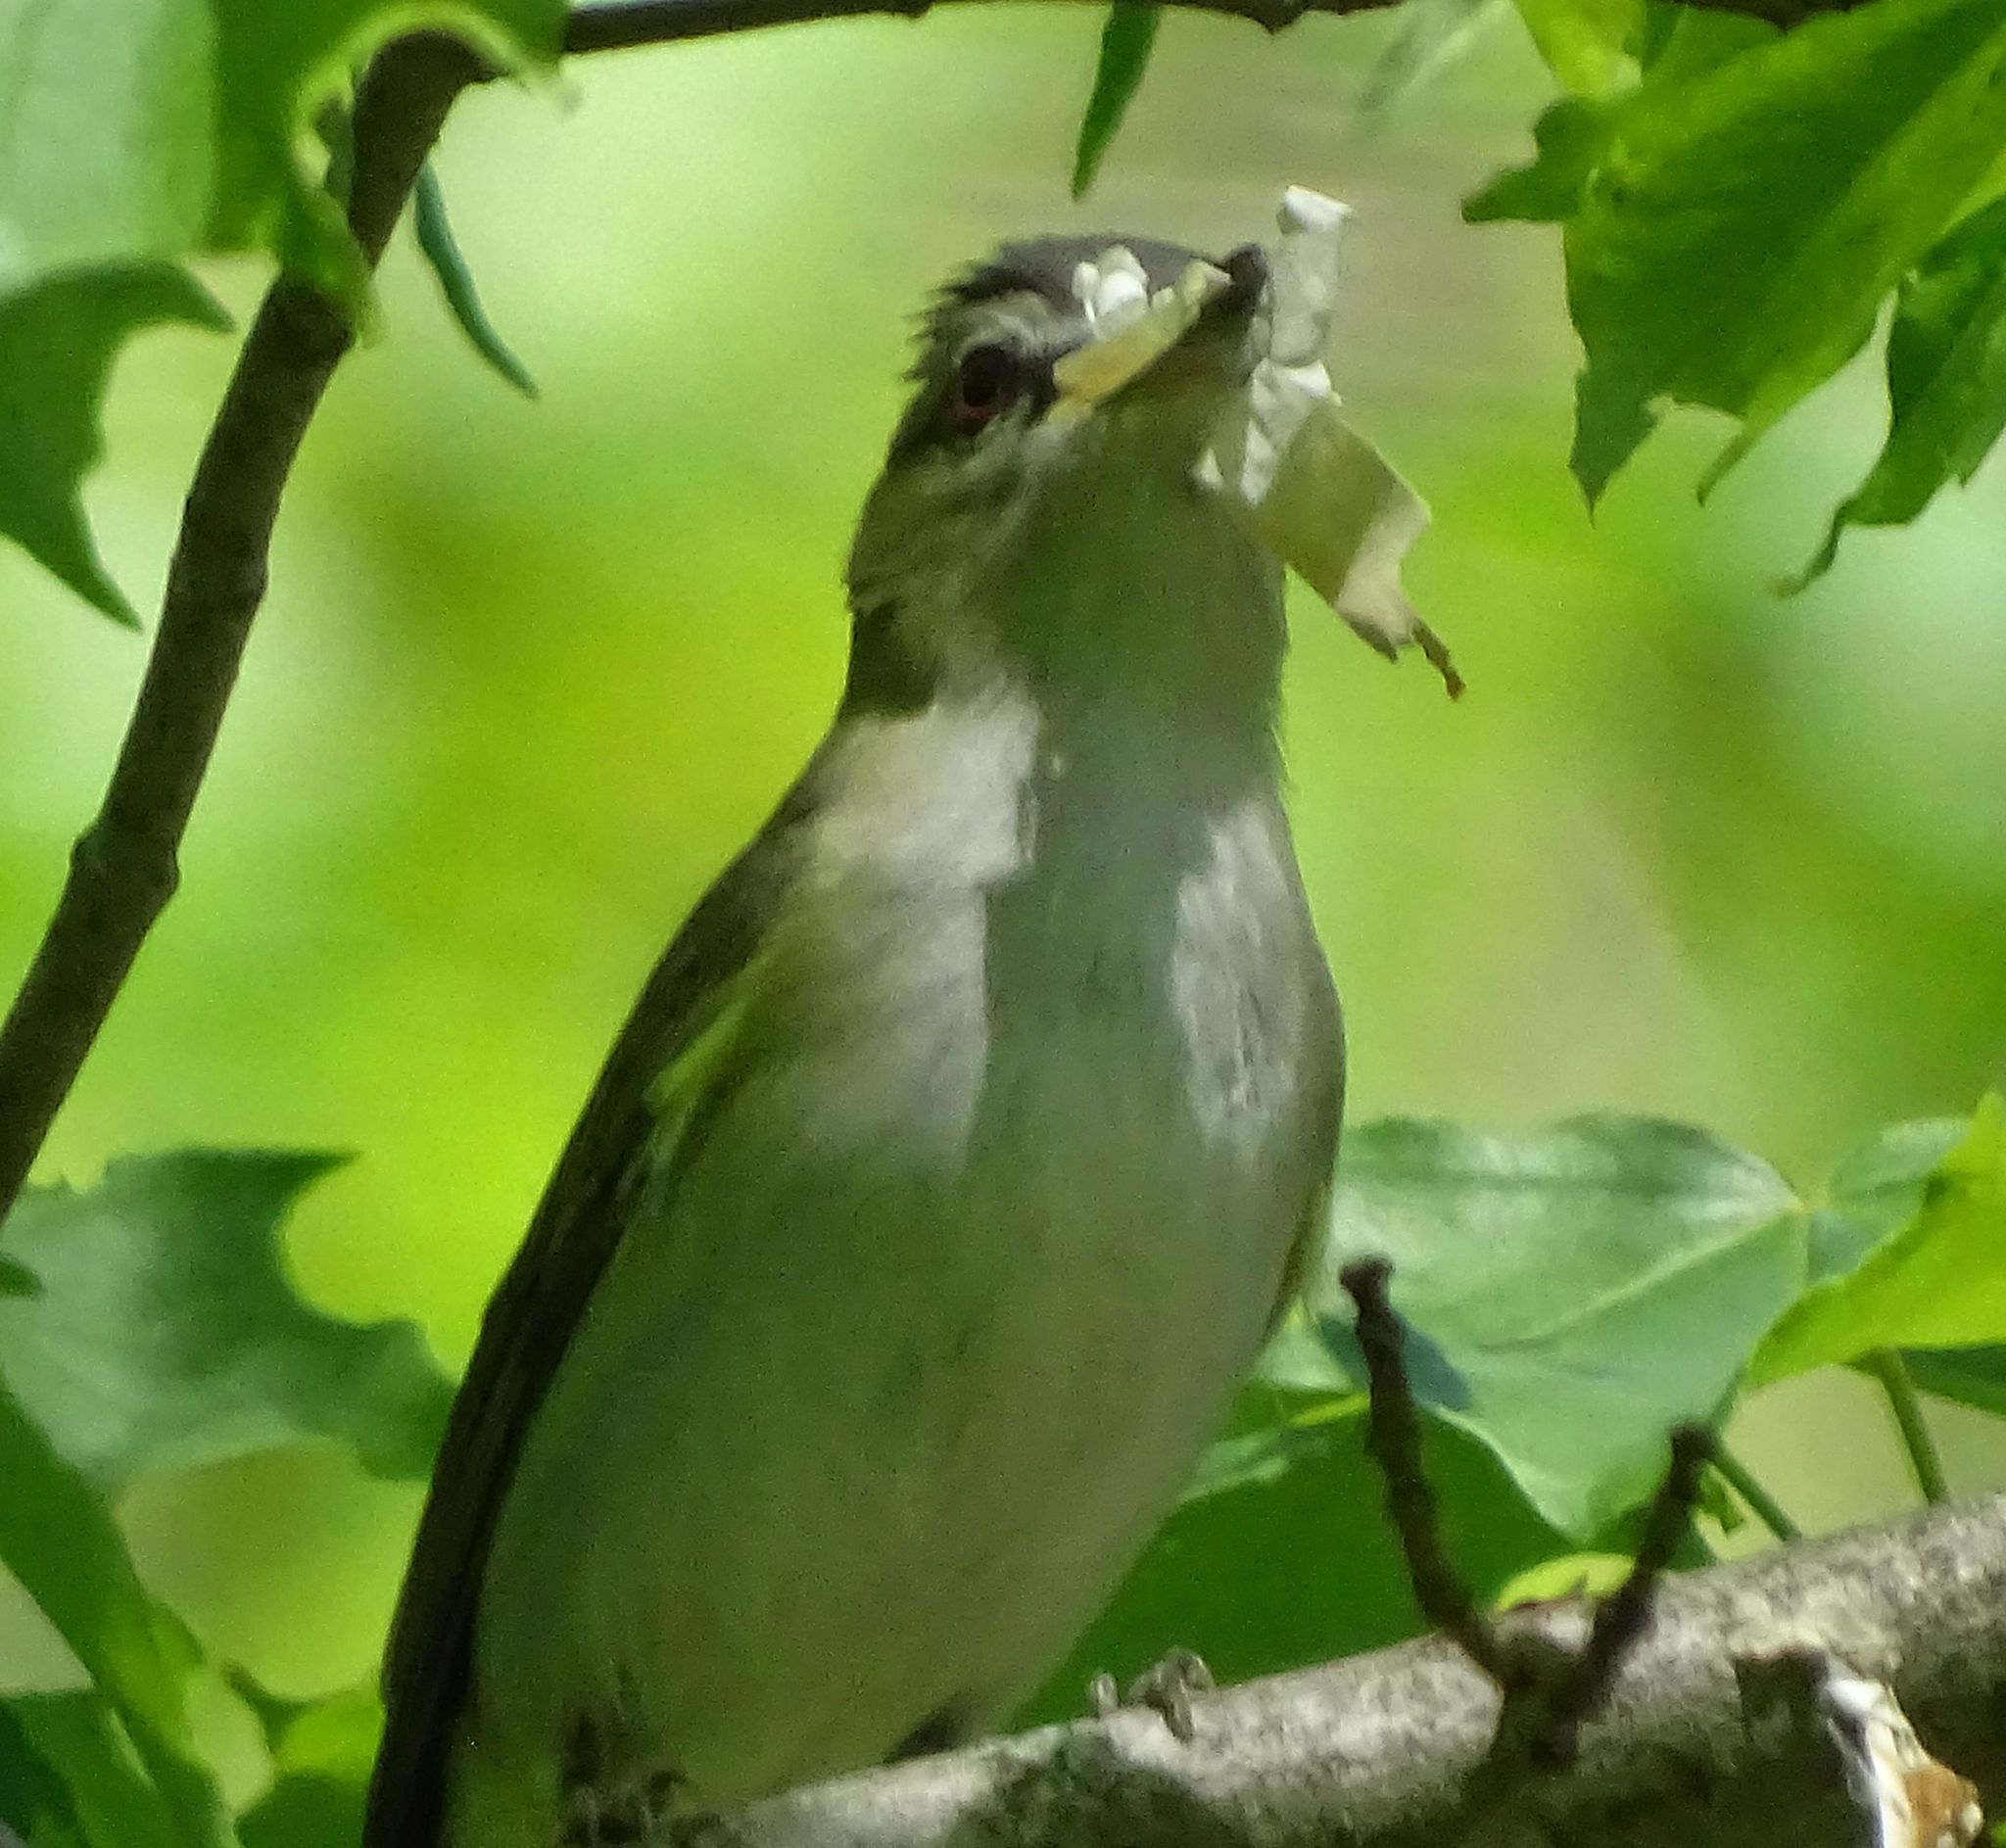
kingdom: Animalia
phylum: Chordata
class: Aves
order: Passeriformes
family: Vireonidae
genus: Vireo
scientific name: Vireo olivaceus
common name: Red-eyed vireo
